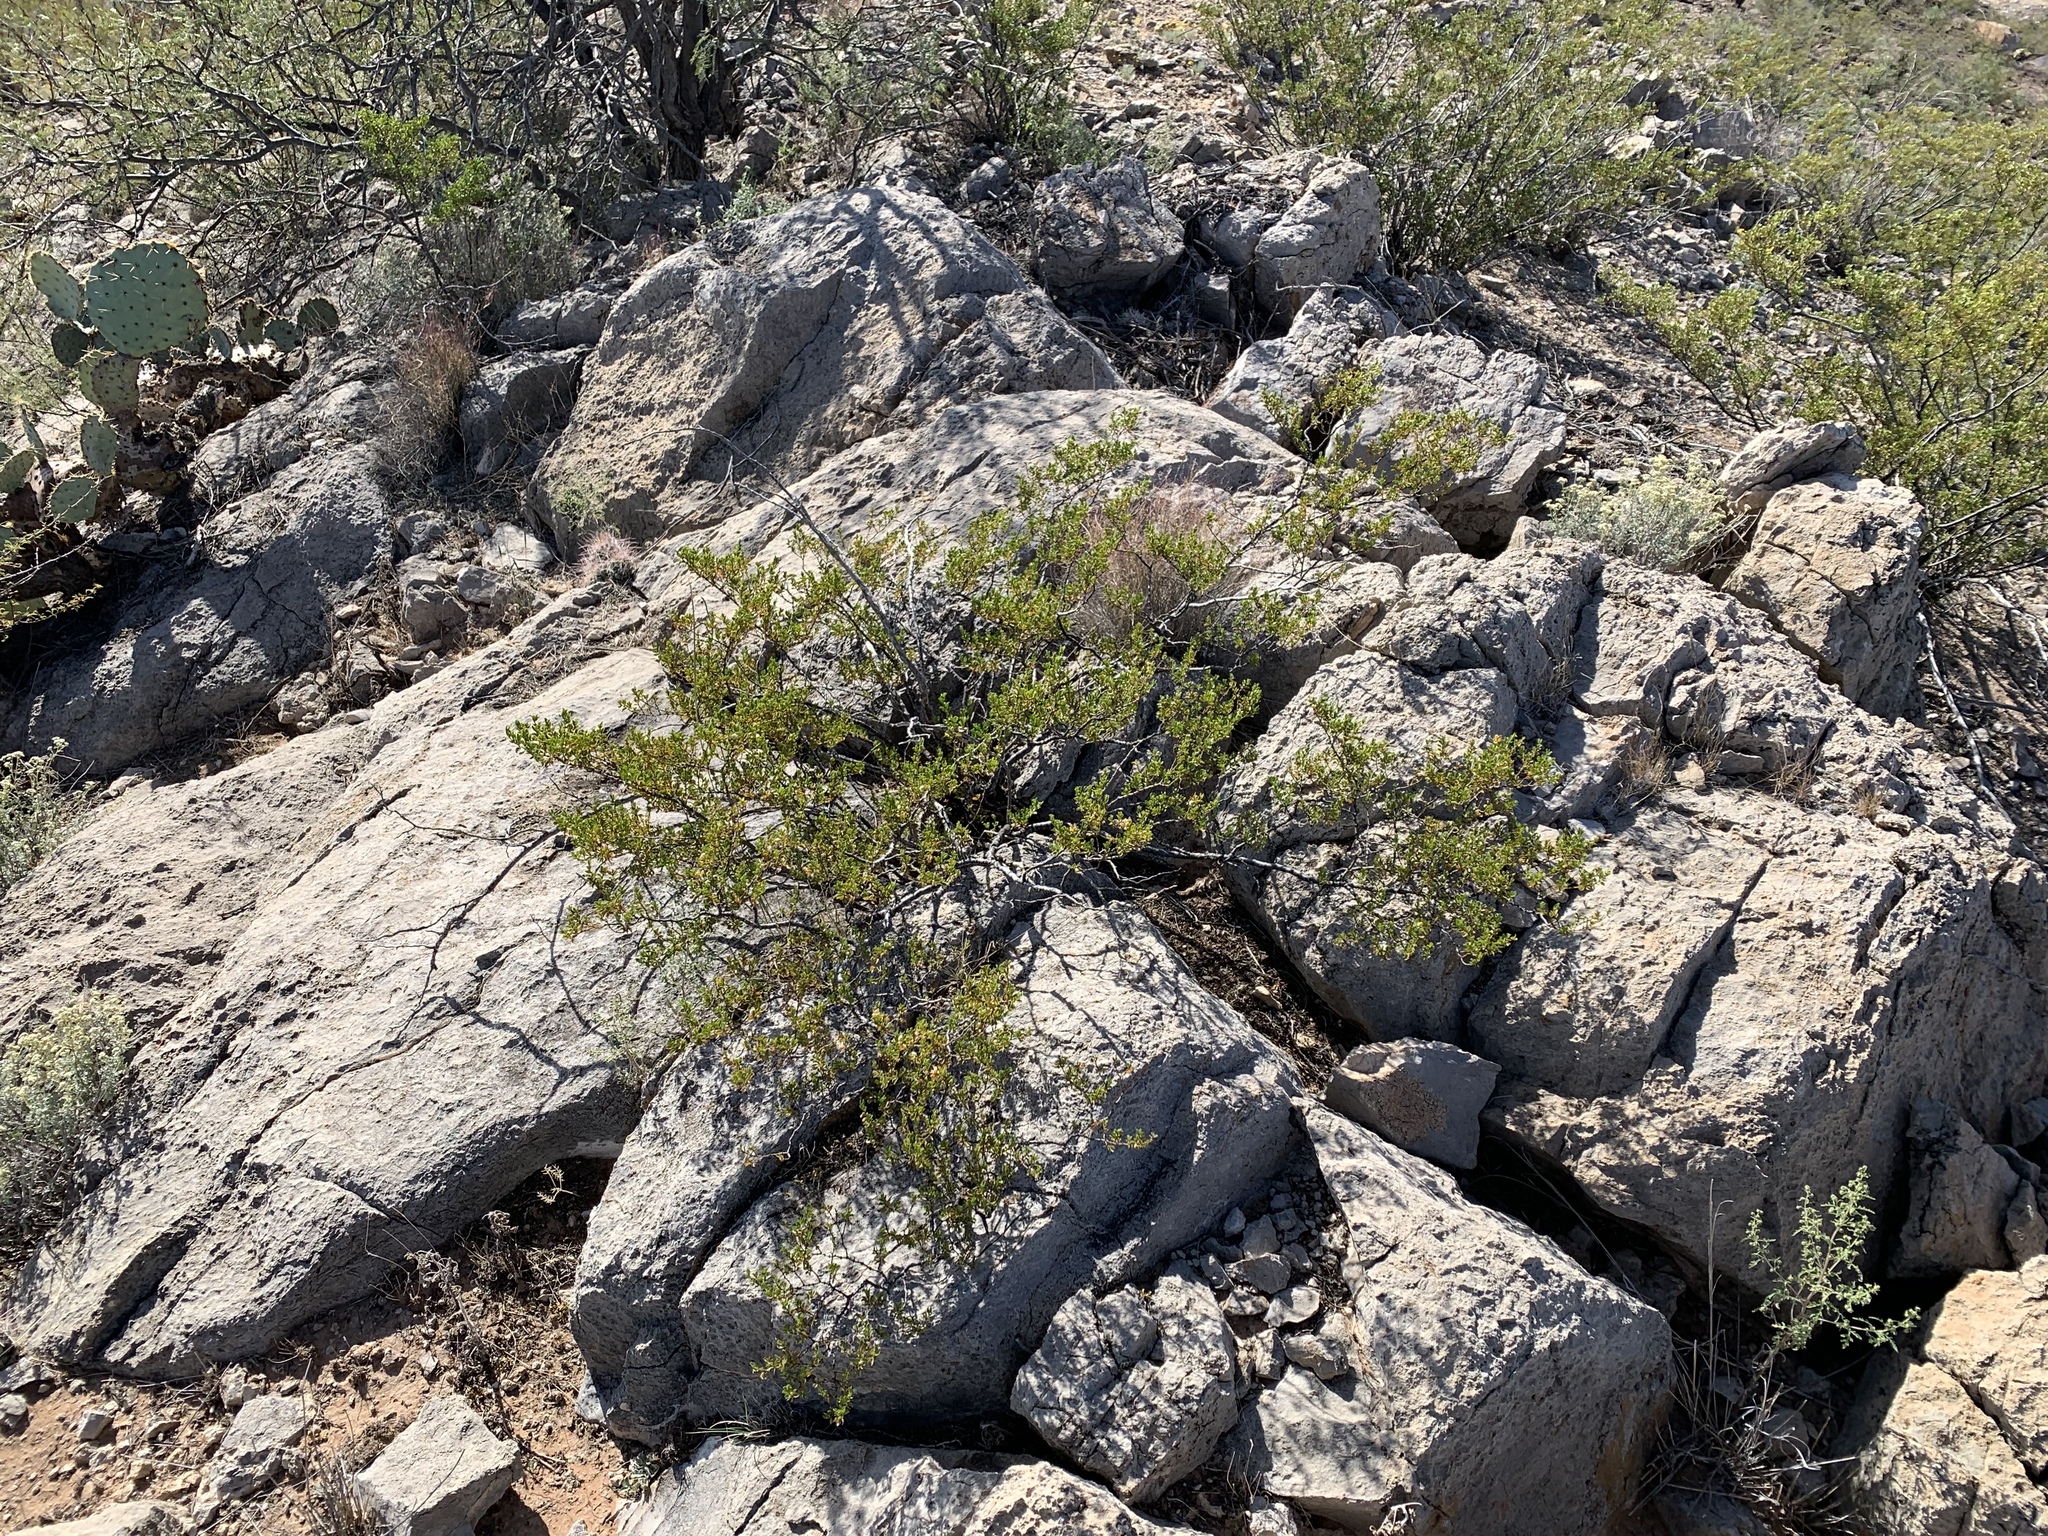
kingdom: Plantae
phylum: Tracheophyta
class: Magnoliopsida
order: Zygophyllales
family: Zygophyllaceae
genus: Larrea
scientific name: Larrea tridentata
